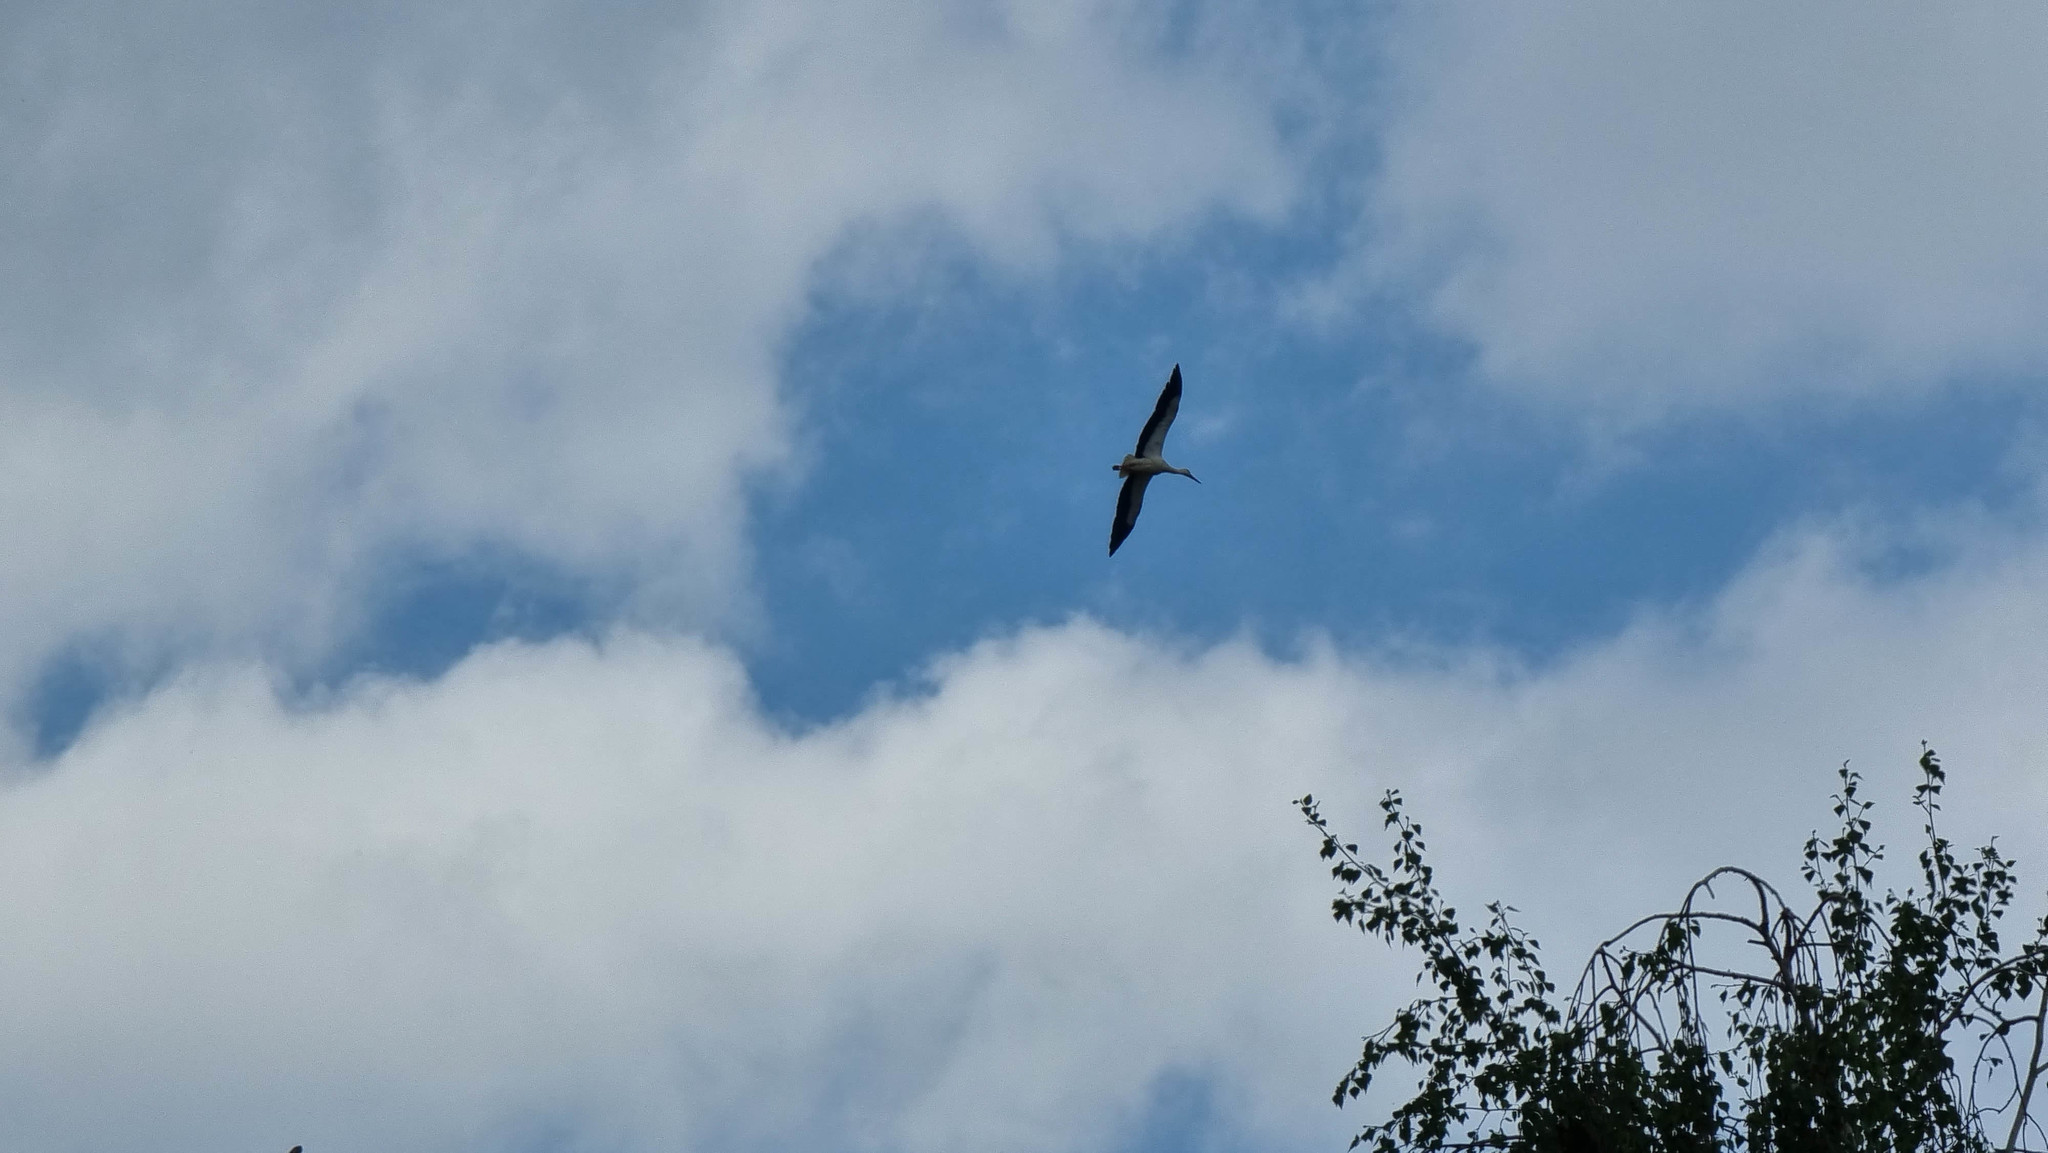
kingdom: Animalia
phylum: Chordata
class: Aves
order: Ciconiiformes
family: Ciconiidae
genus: Ciconia
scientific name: Ciconia ciconia
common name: White stork
